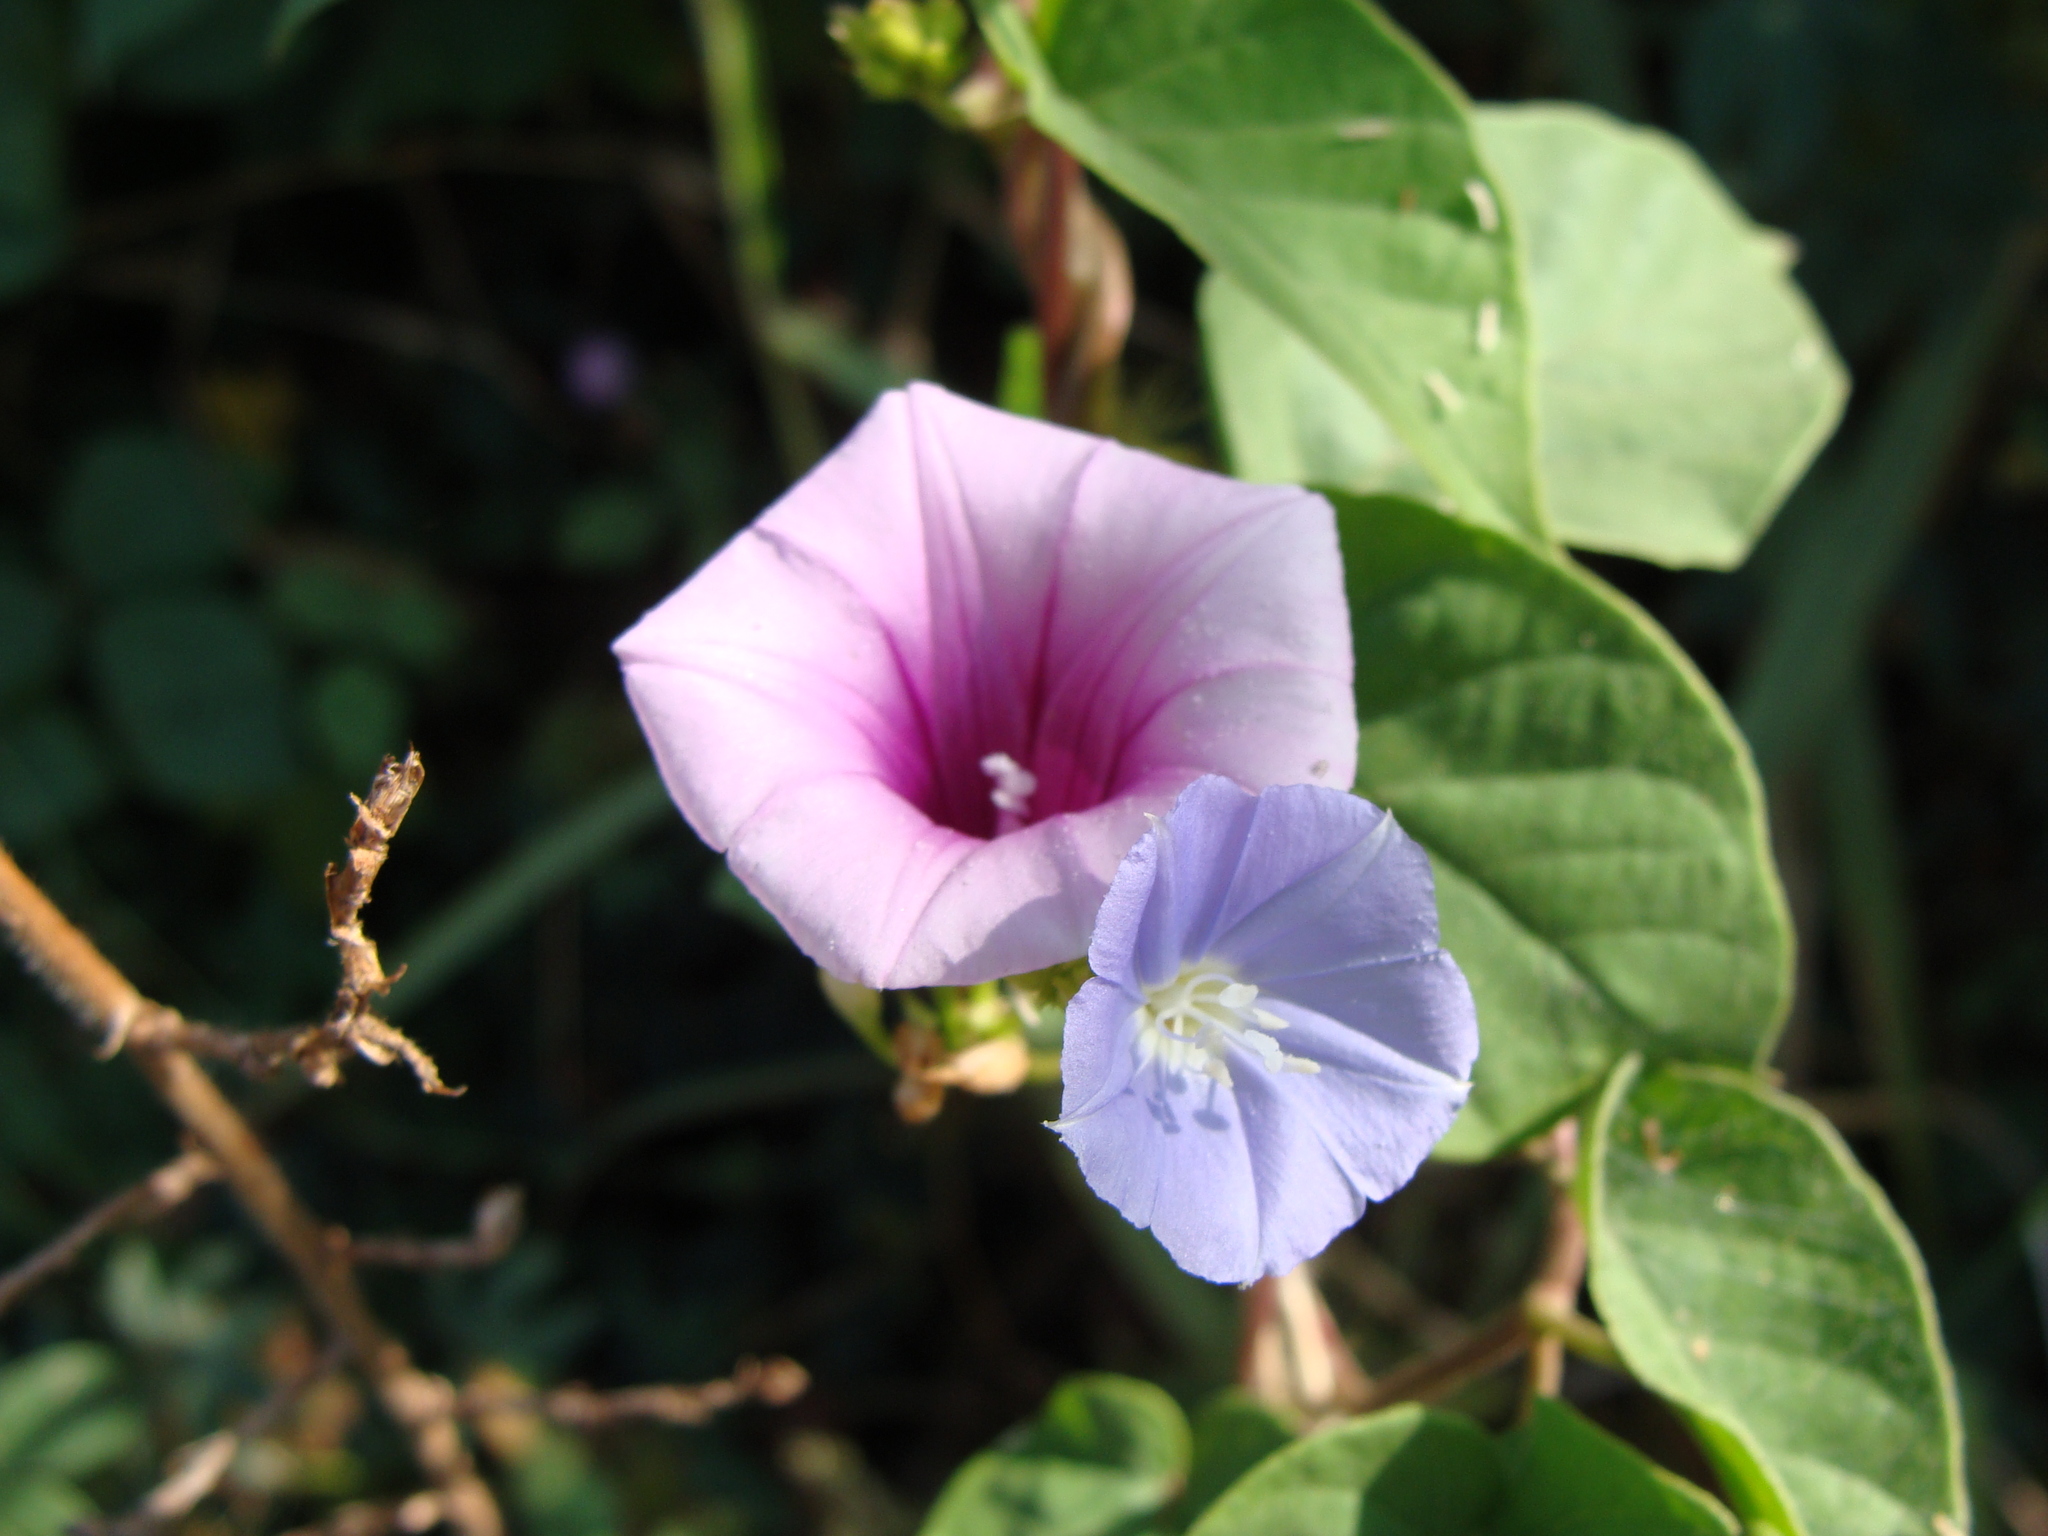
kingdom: Plantae
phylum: Tracheophyta
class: Magnoliopsida
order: Solanales
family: Convolvulaceae
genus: Ipomoea
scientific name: Ipomoea trifida
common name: Cotton morningglory
